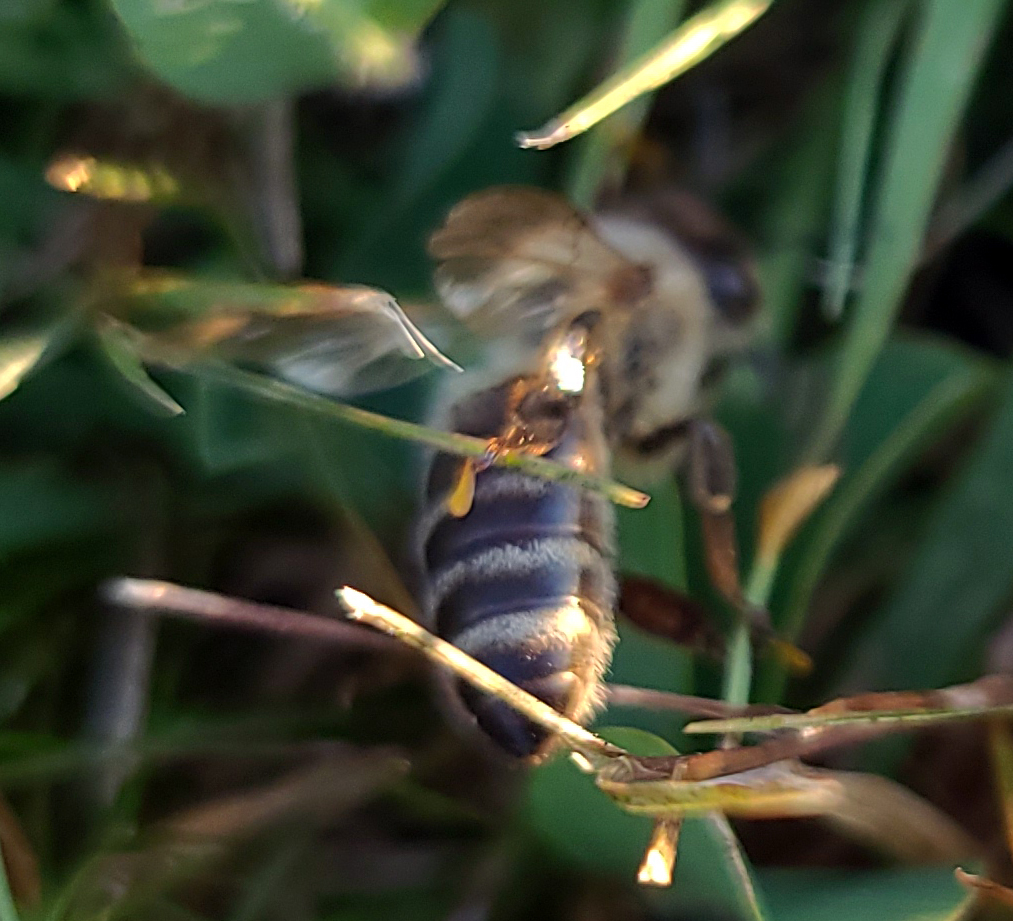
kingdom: Animalia
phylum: Arthropoda
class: Insecta
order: Hymenoptera
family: Apidae
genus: Apis
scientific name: Apis mellifera
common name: Honey bee
